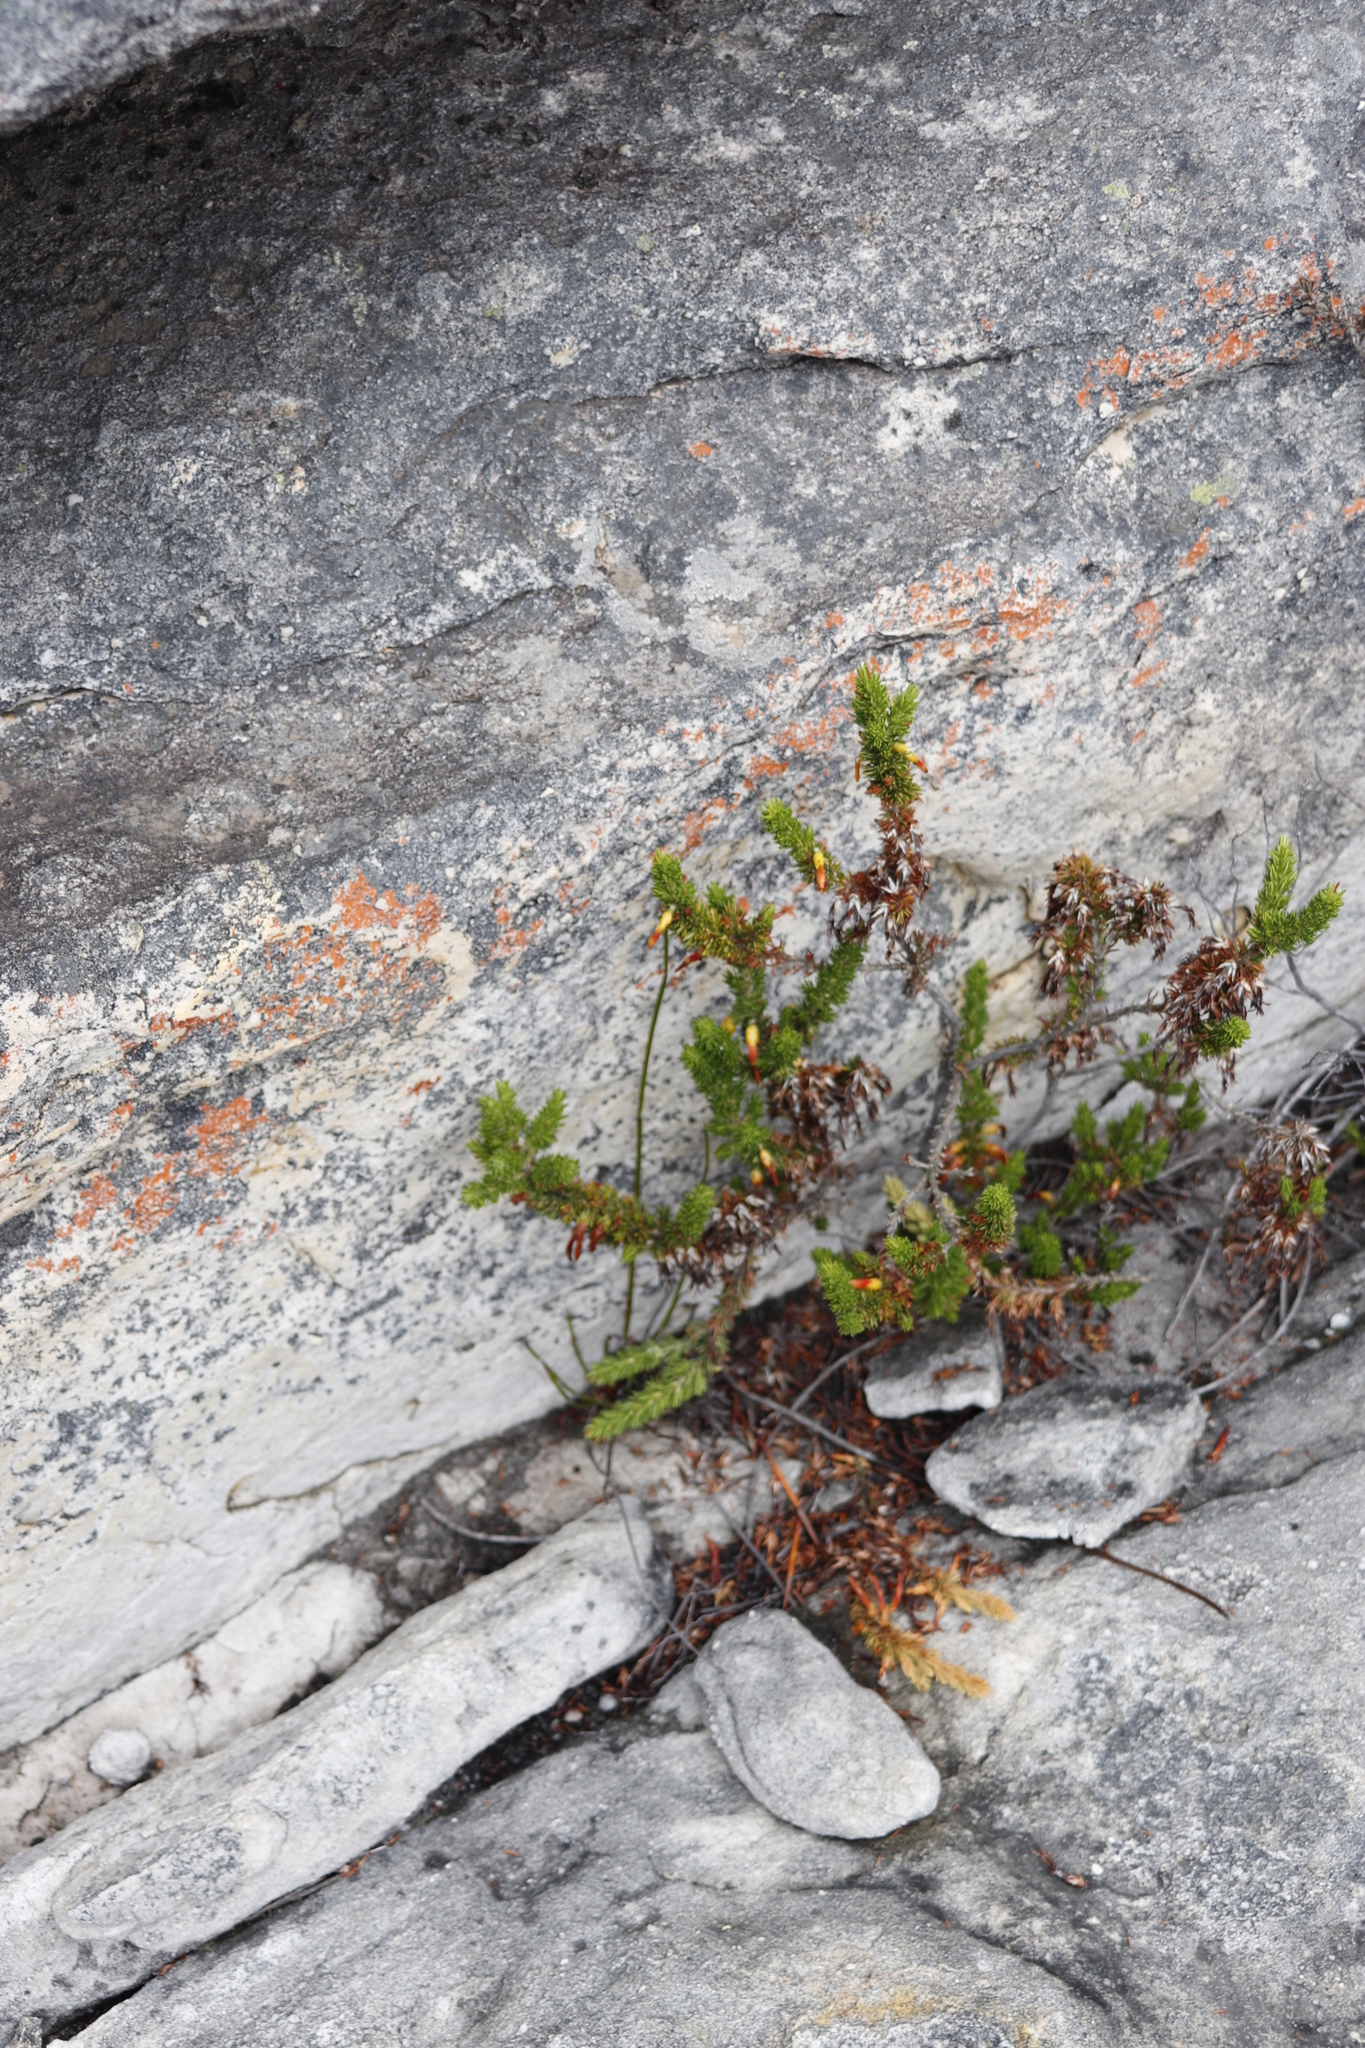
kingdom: Plantae
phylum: Tracheophyta
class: Magnoliopsida
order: Ericales
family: Ericaceae
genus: Erica
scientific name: Erica coccinea
